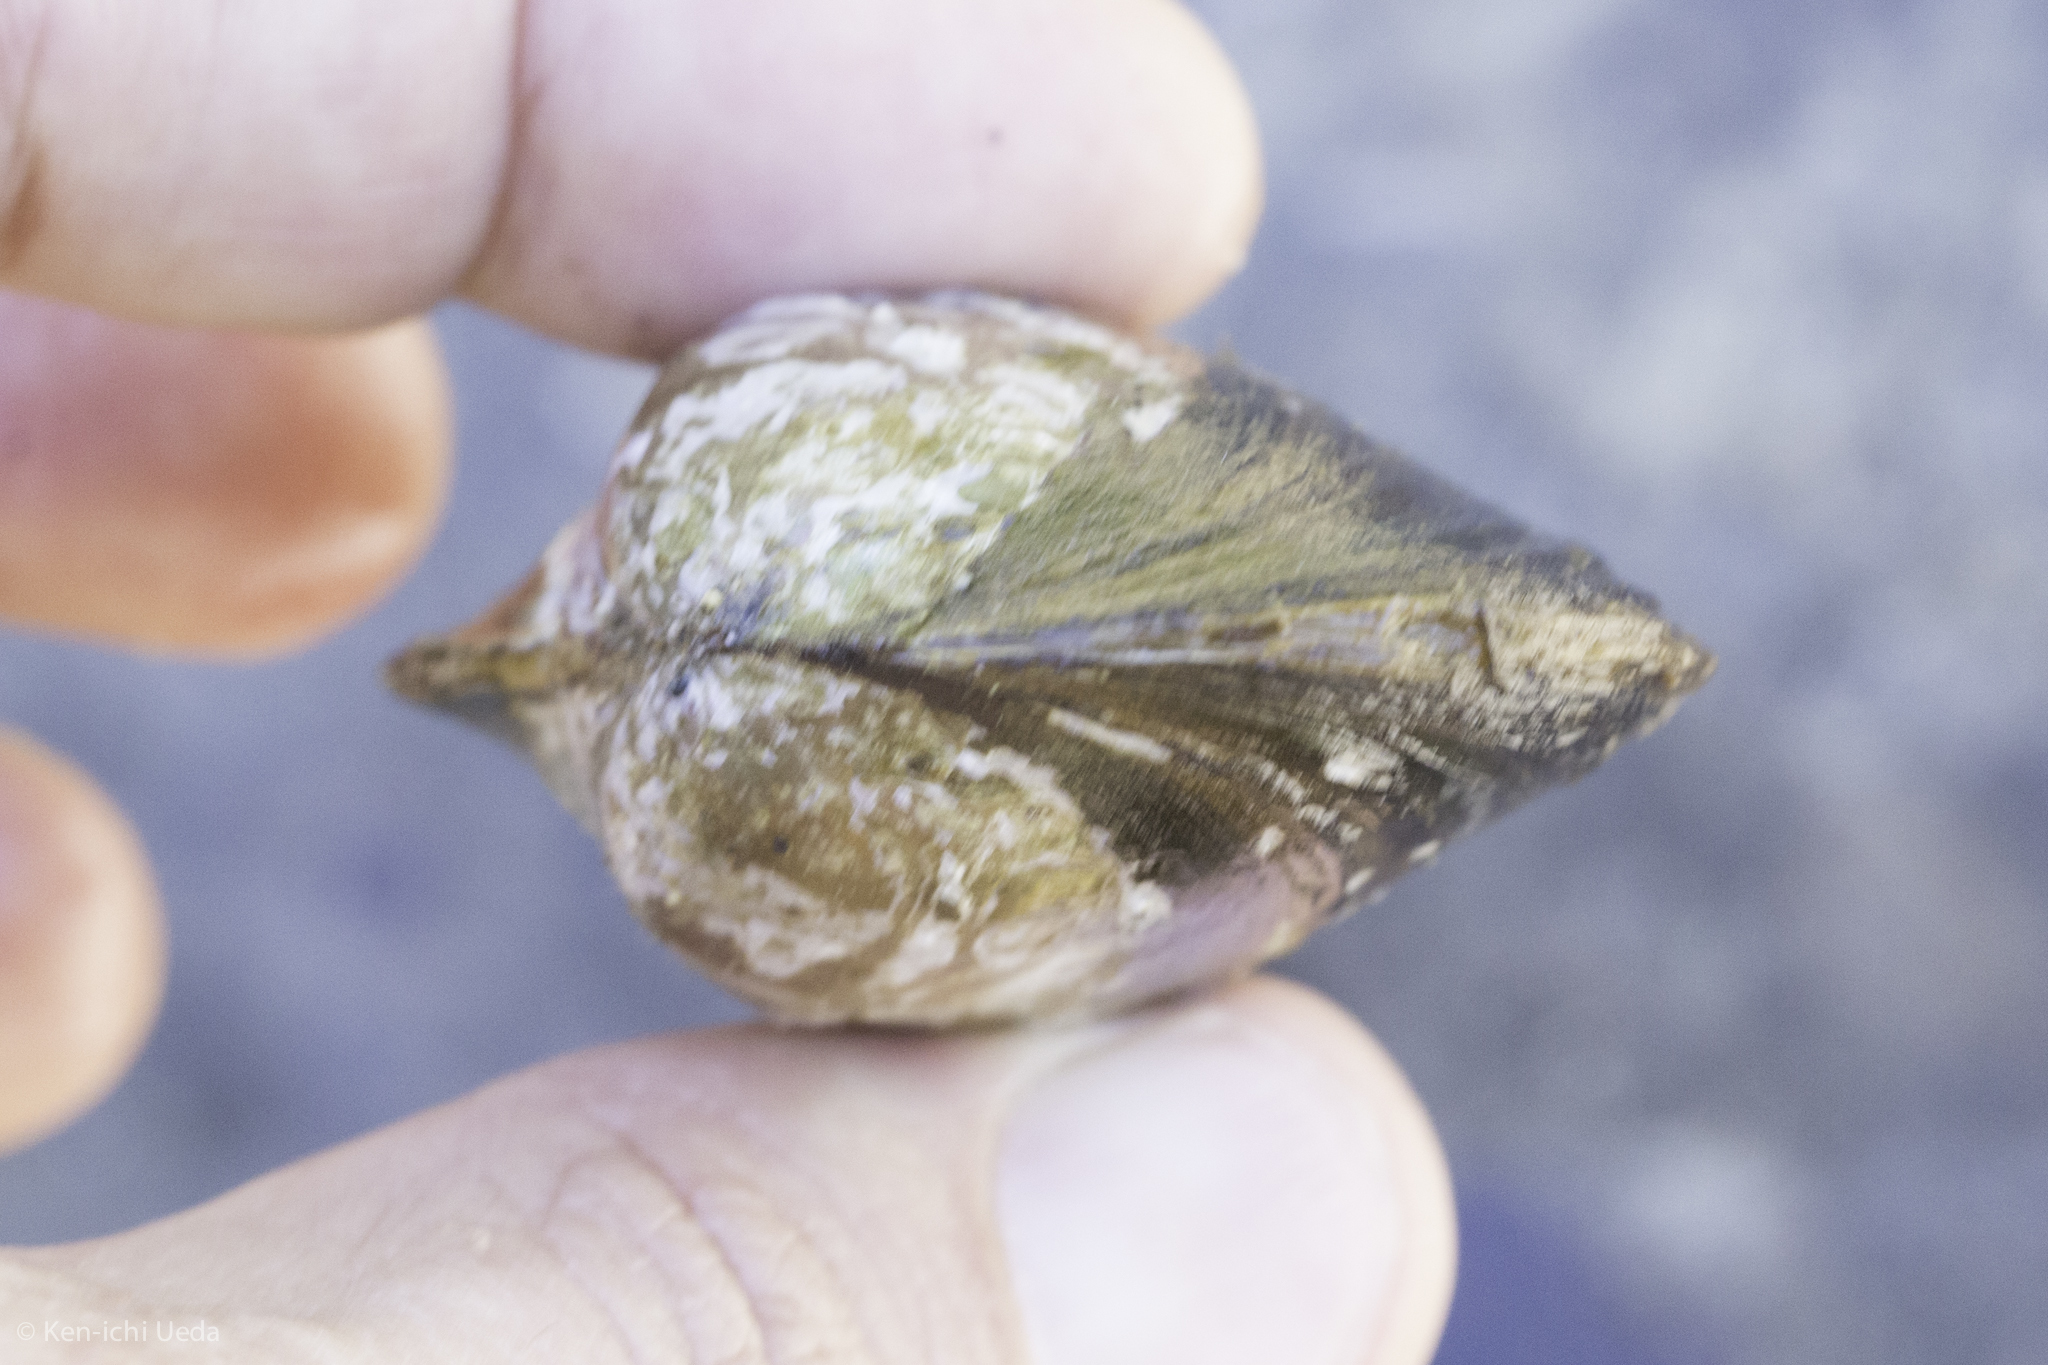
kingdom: Animalia
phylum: Mollusca
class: Bivalvia
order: Unionida
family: Unionidae
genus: Anodonta
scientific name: Anodonta californiensis
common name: California floater
